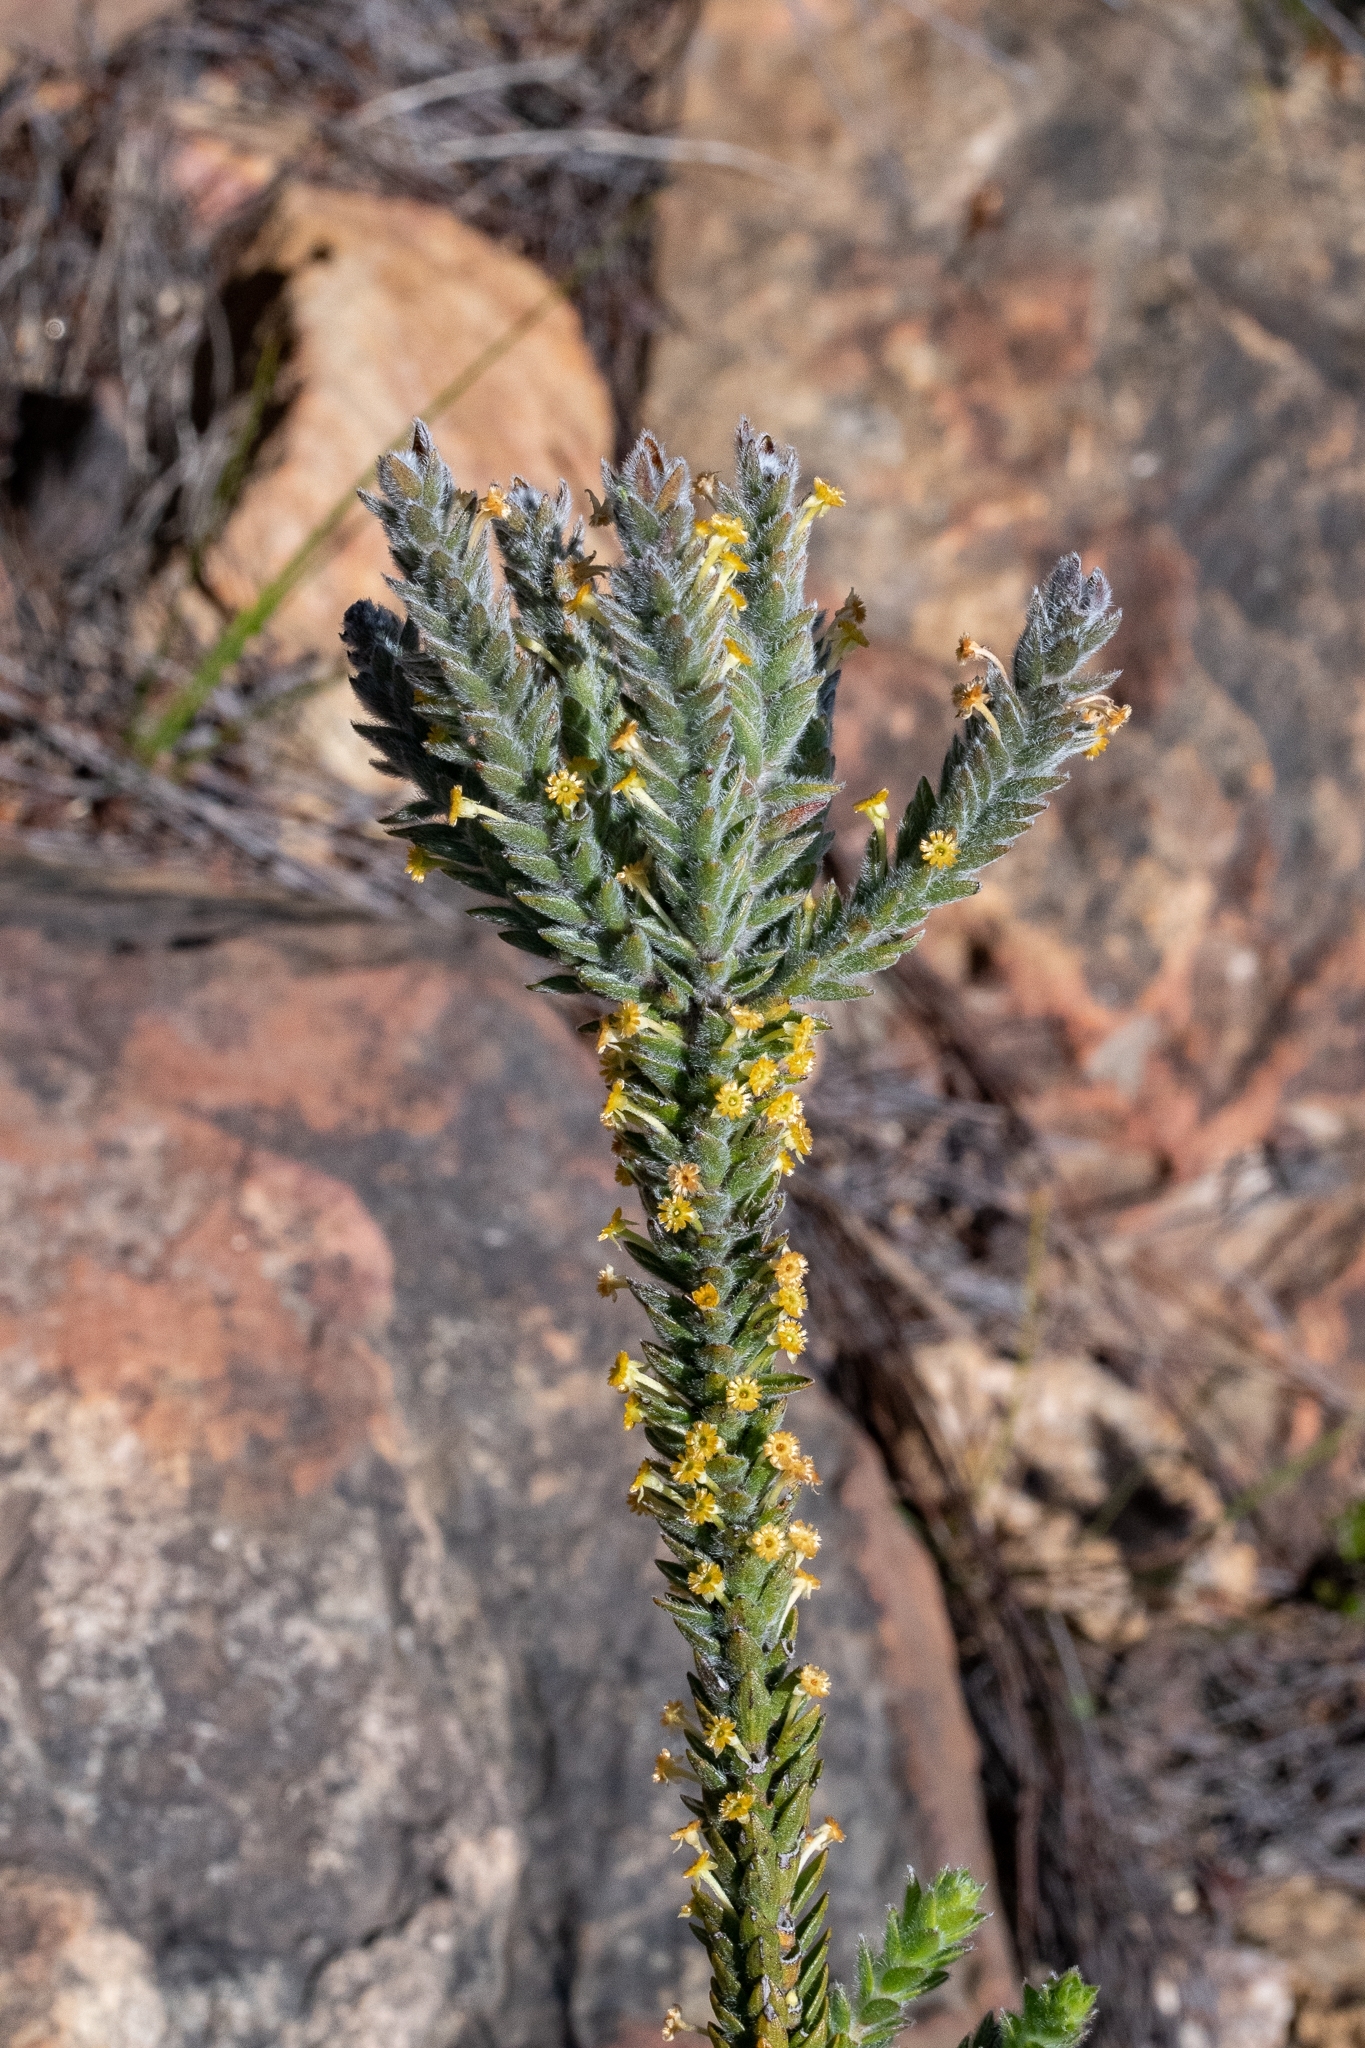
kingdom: Plantae
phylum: Tracheophyta
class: Magnoliopsida
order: Malvales
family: Thymelaeaceae
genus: Struthiola
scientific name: Struthiola tomentosa
